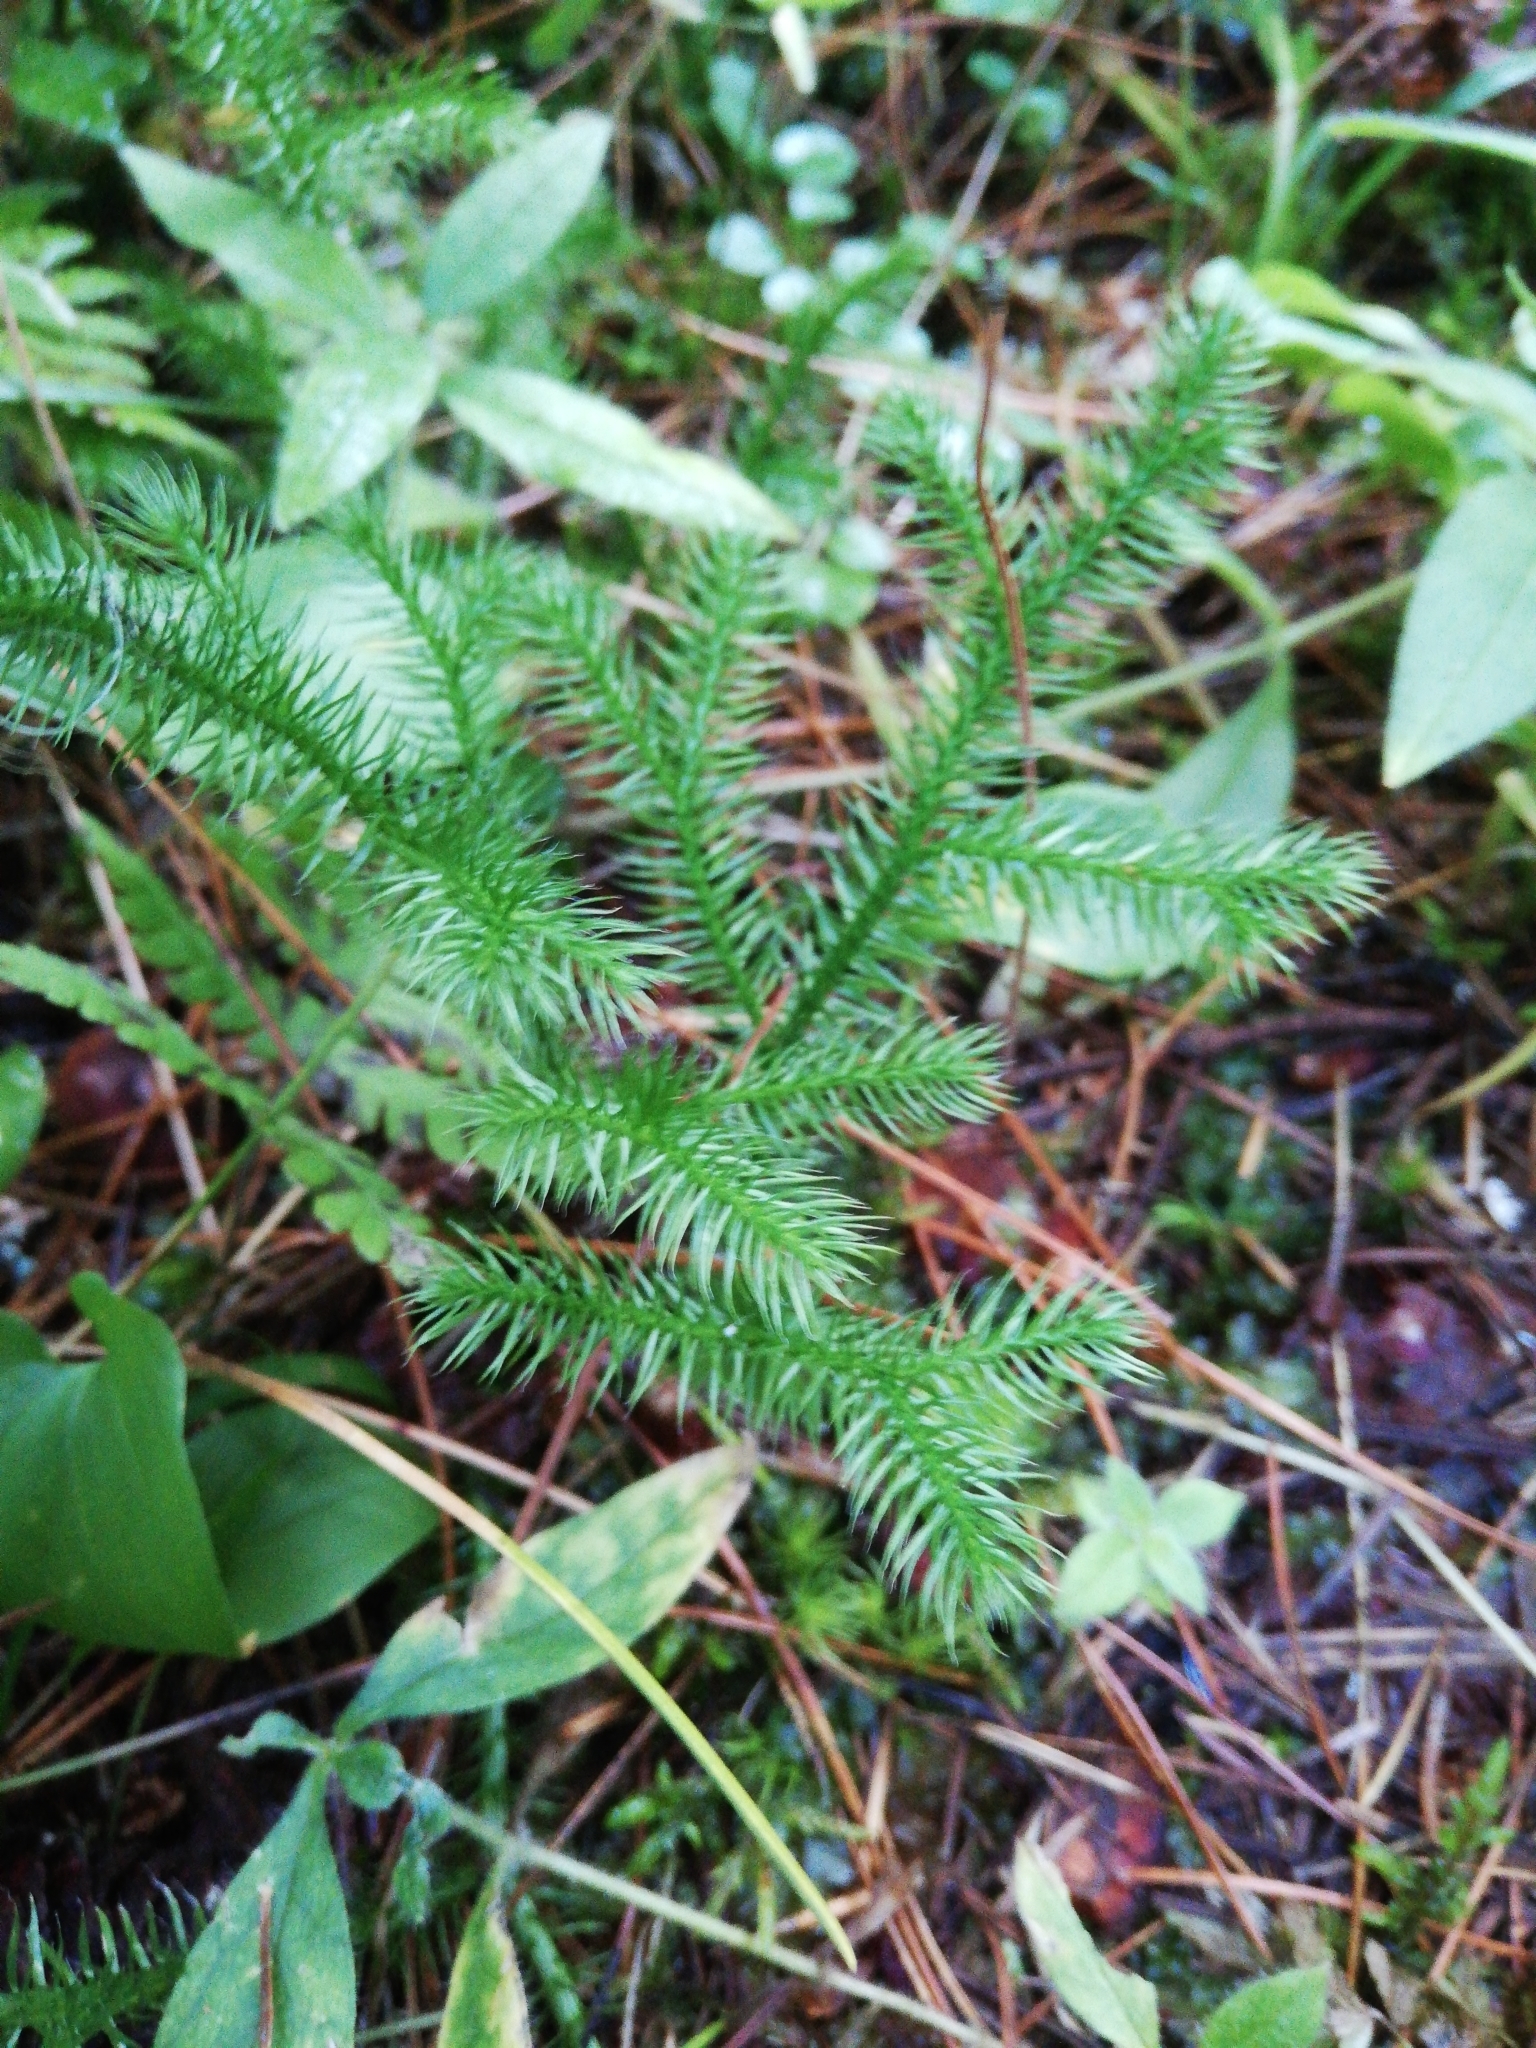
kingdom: Plantae
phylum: Tracheophyta
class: Lycopodiopsida
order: Lycopodiales
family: Lycopodiaceae
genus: Lycopodium
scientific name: Lycopodium clavatum
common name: Stag's-horn clubmoss
